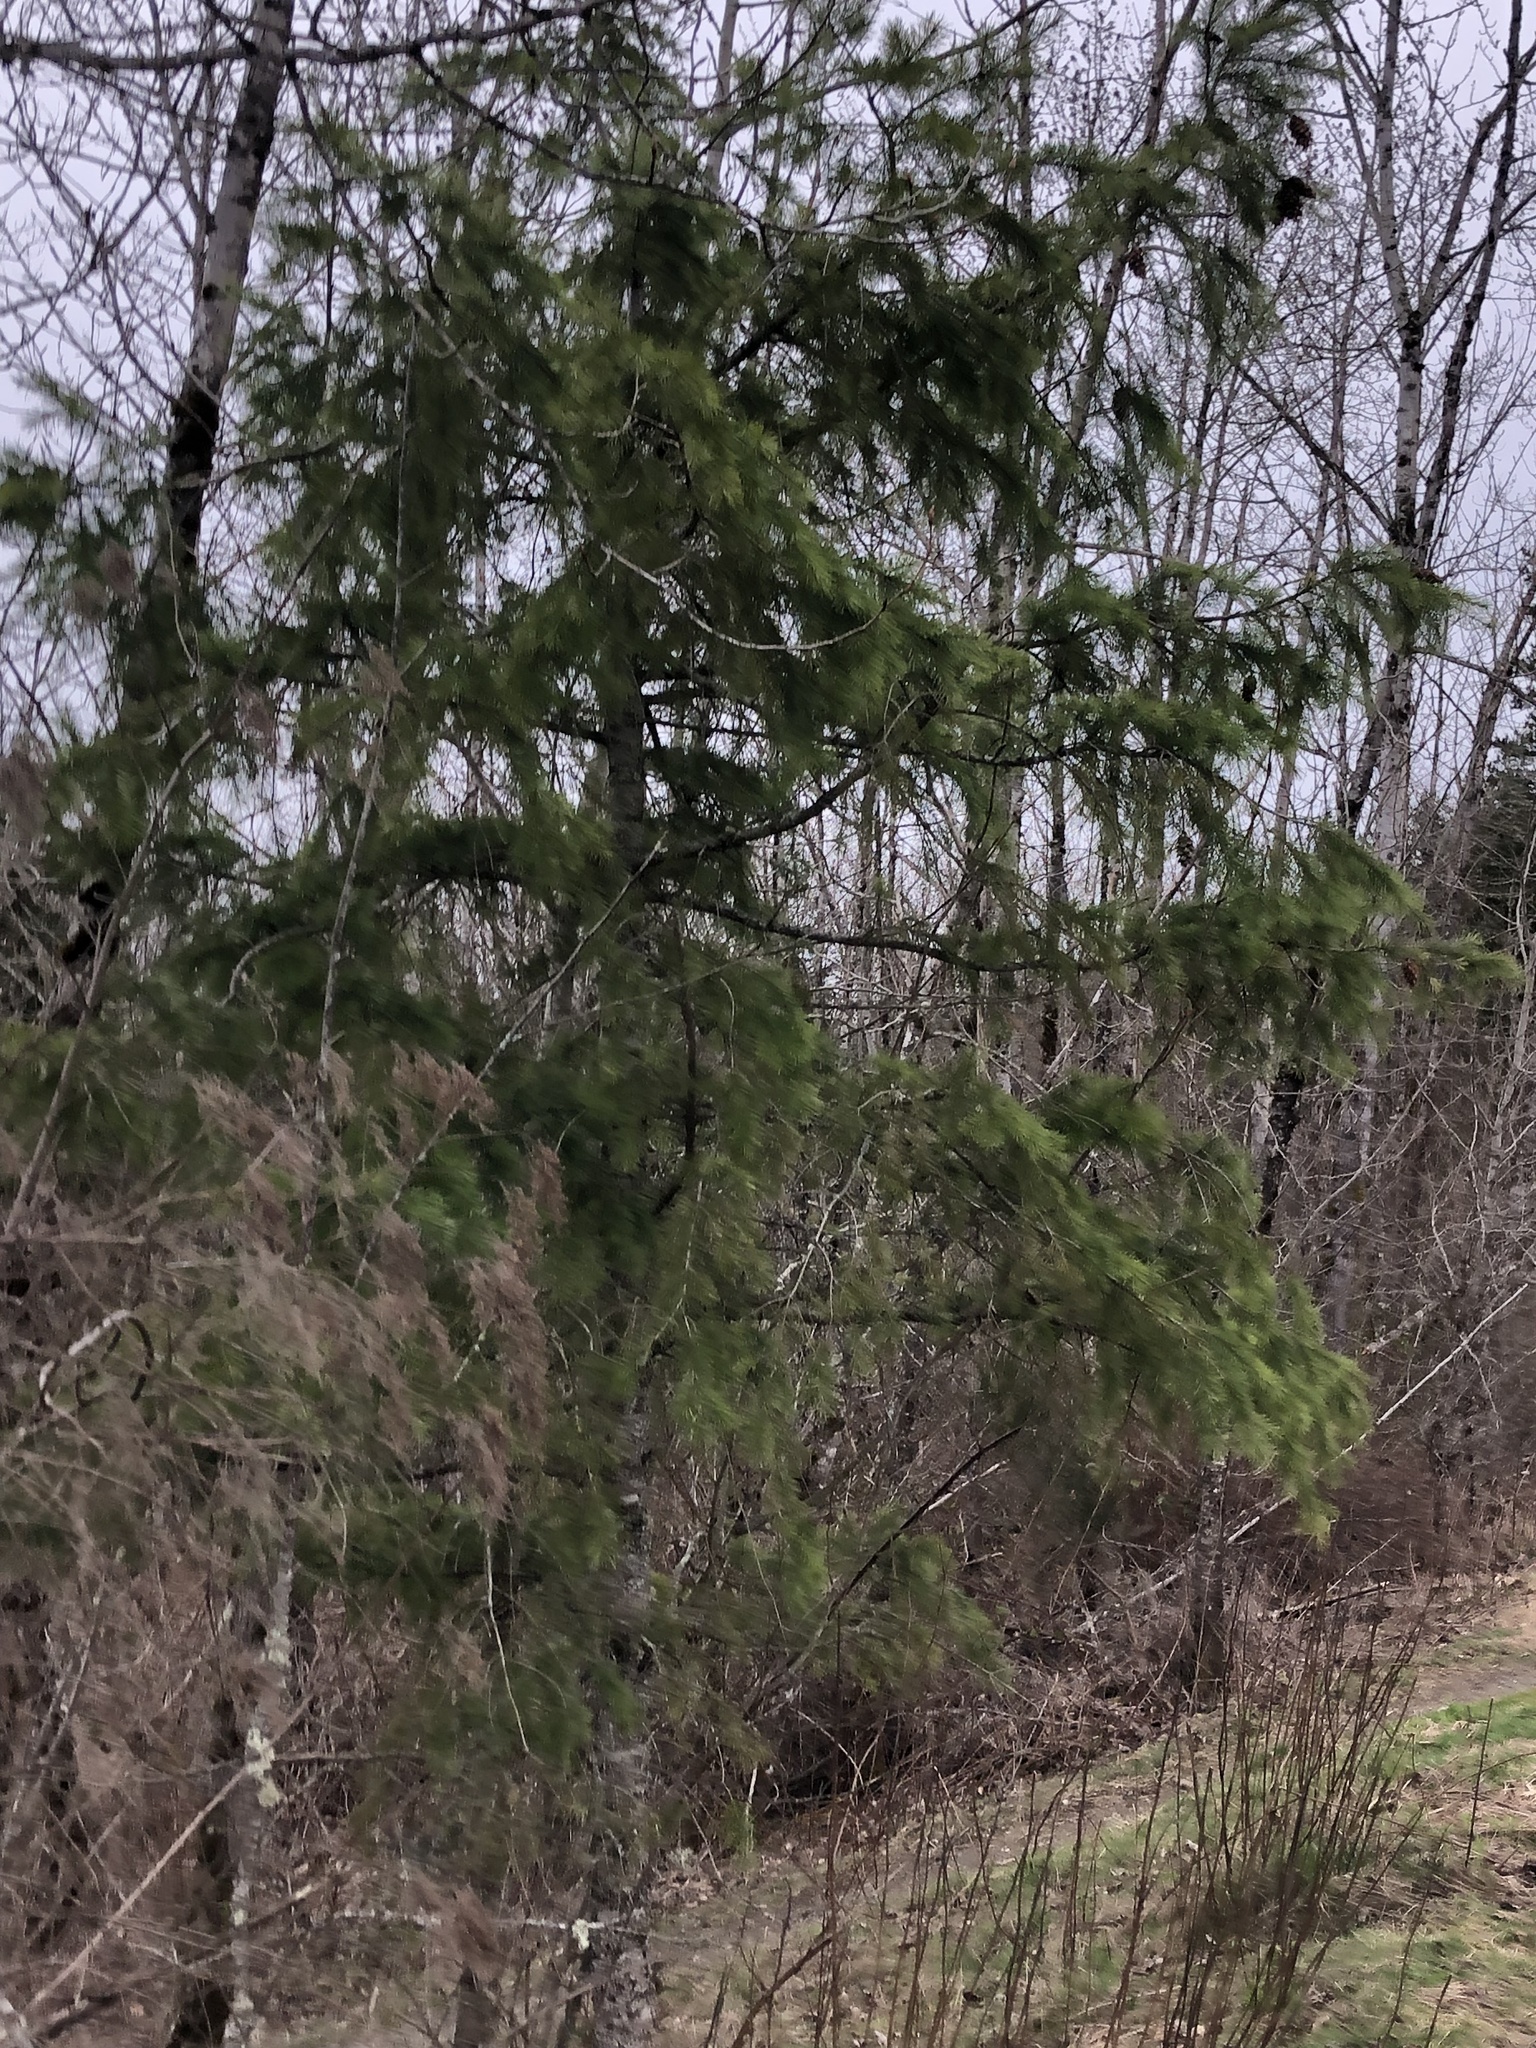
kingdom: Plantae
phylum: Tracheophyta
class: Pinopsida
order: Pinales
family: Pinaceae
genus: Pseudotsuga
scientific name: Pseudotsuga menziesii
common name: Douglas fir
